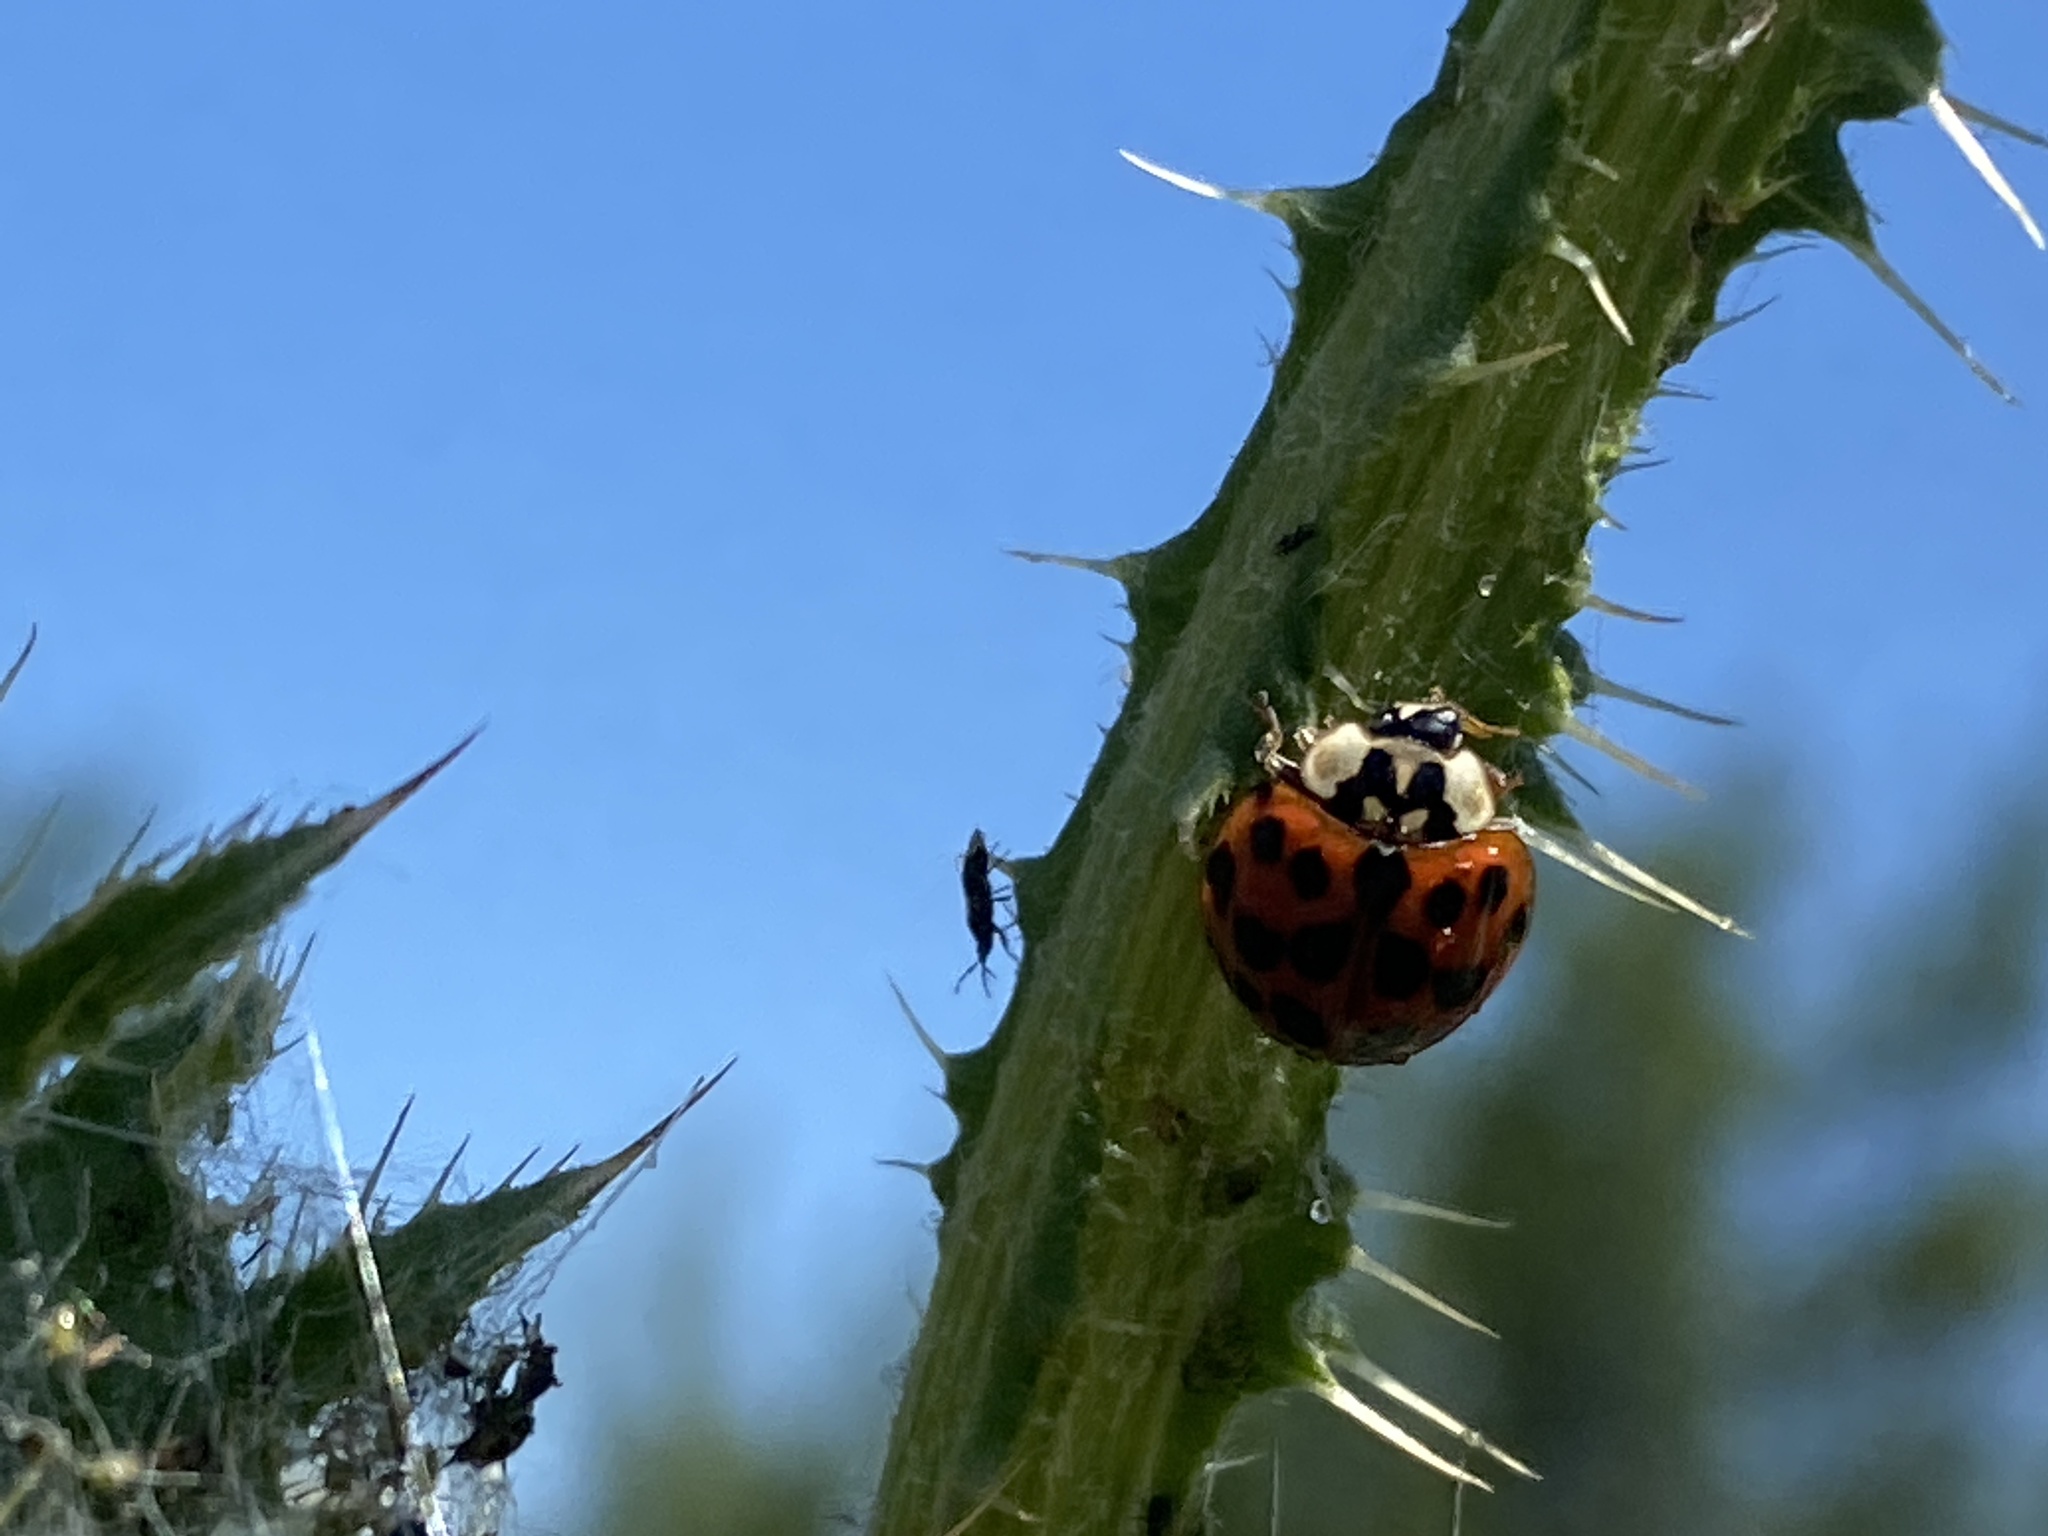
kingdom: Animalia
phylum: Arthropoda
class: Insecta
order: Coleoptera
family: Coccinellidae
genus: Harmonia
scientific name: Harmonia axyridis
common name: Harlequin ladybird
